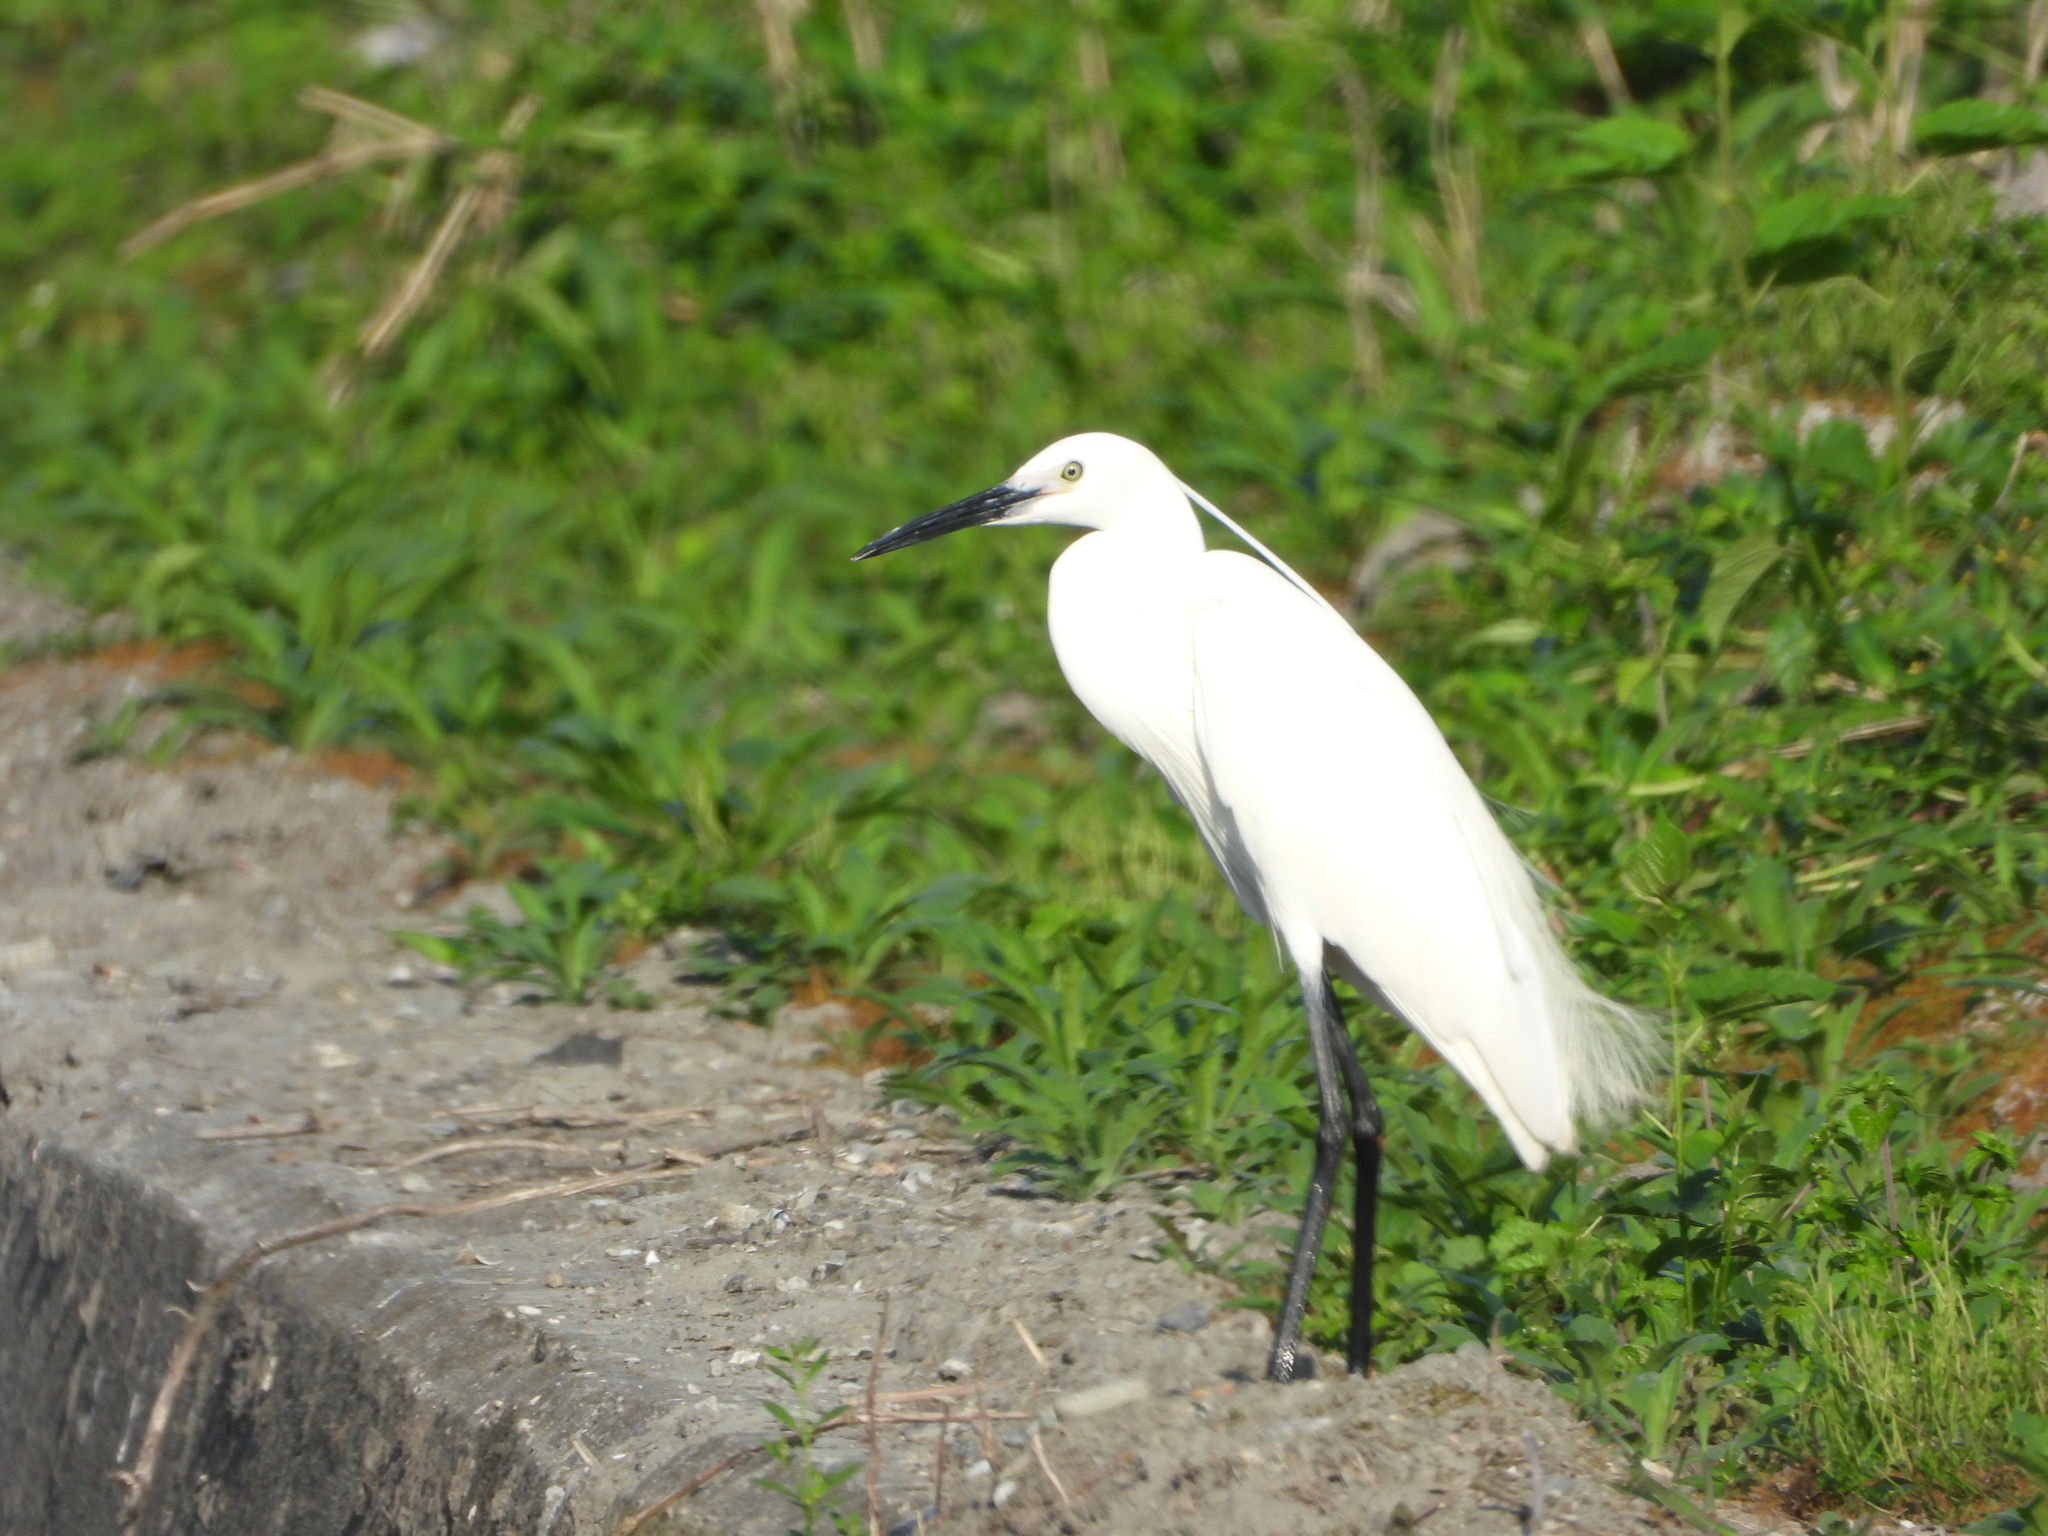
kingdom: Animalia
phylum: Chordata
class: Aves
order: Pelecaniformes
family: Ardeidae
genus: Egretta
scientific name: Egretta garzetta
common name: Little egret
